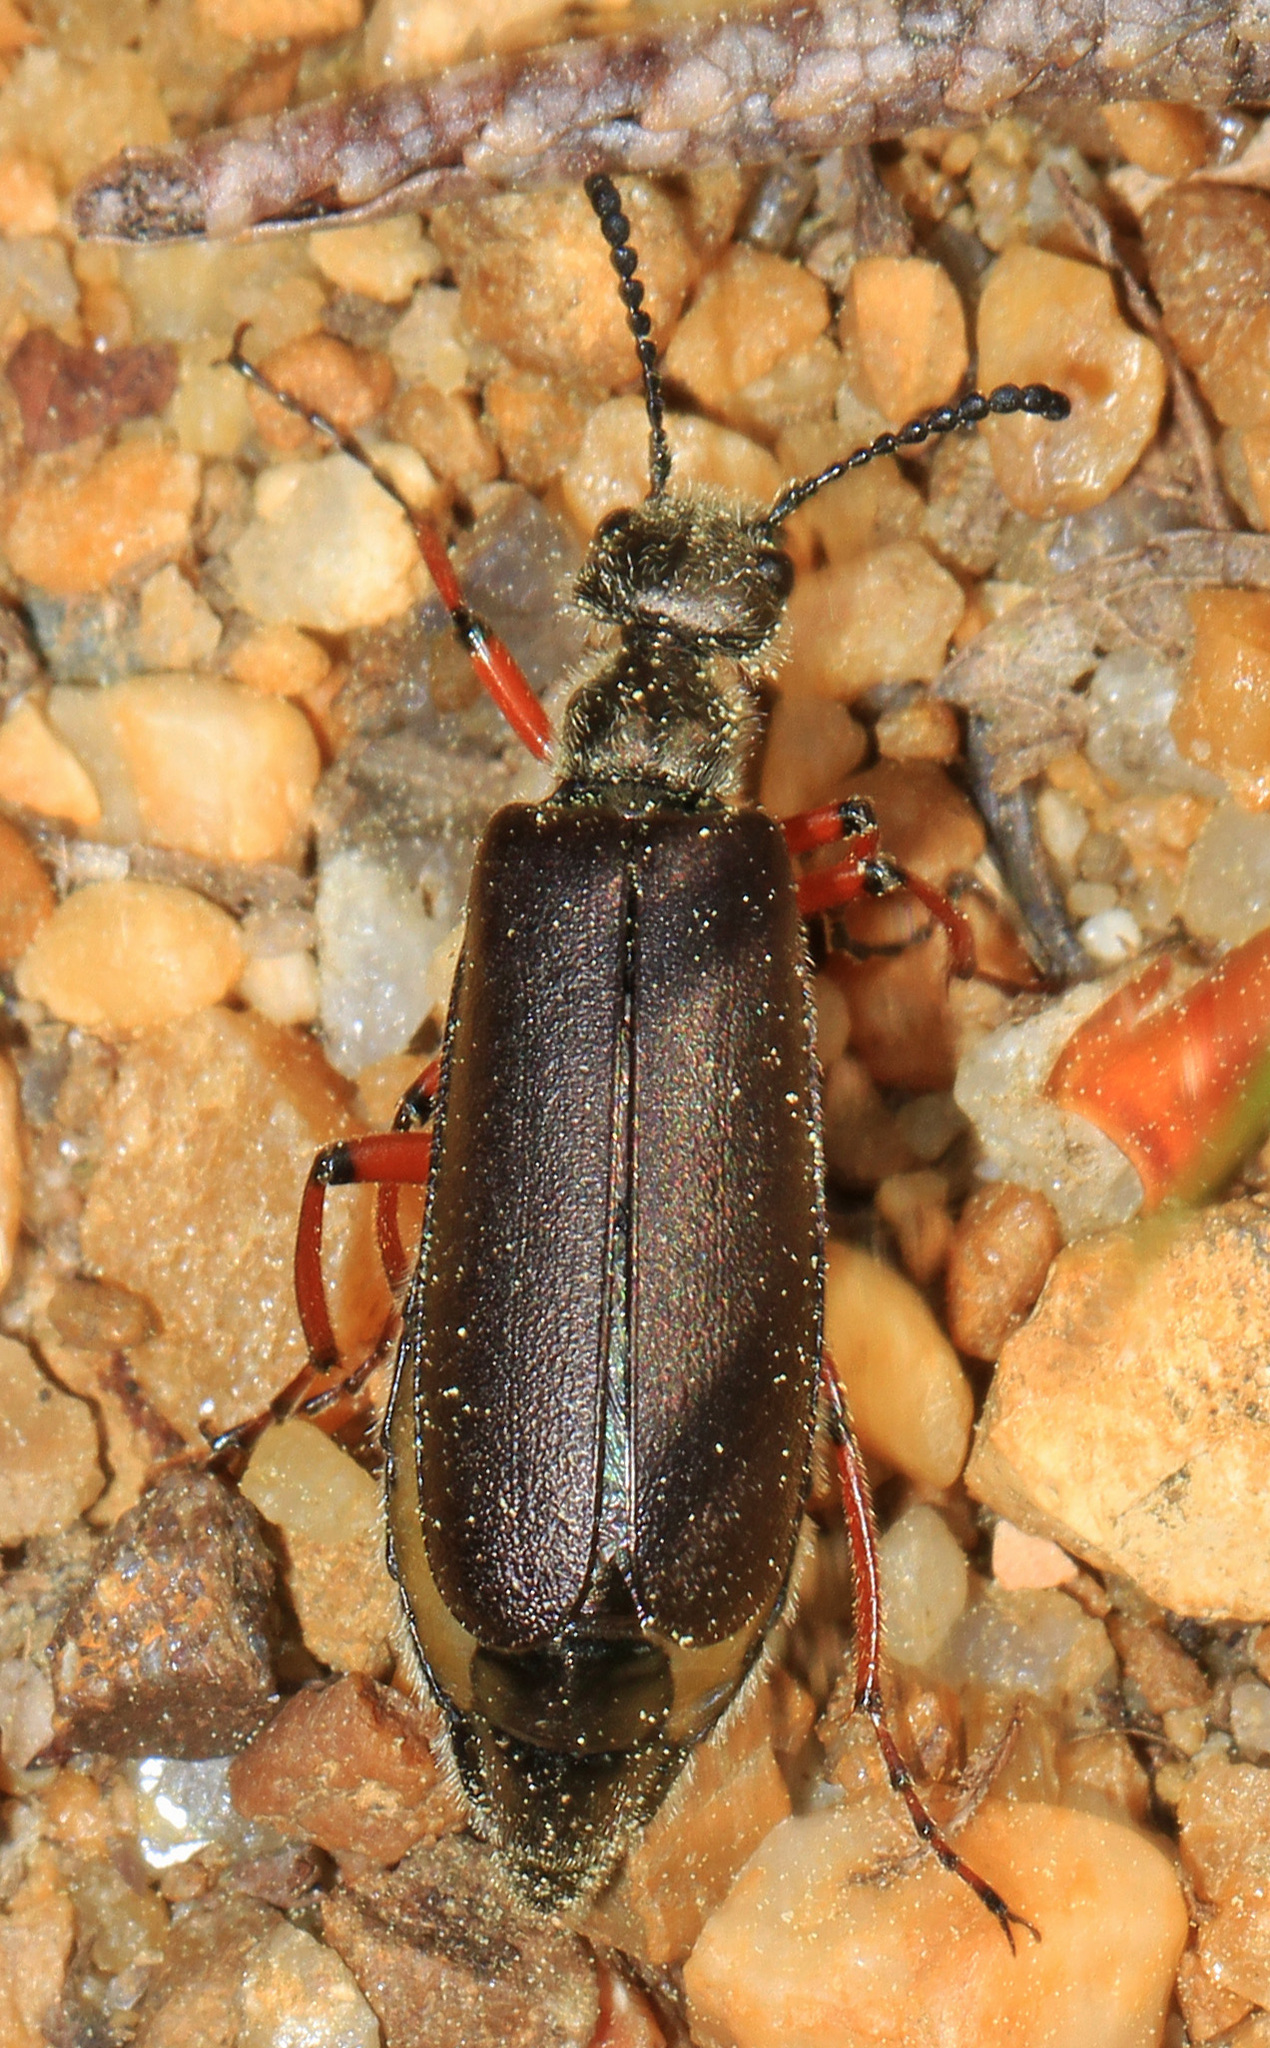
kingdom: Animalia
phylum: Arthropoda
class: Insecta
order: Coleoptera
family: Meloidae
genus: Lytta
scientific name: Lytta aenea
